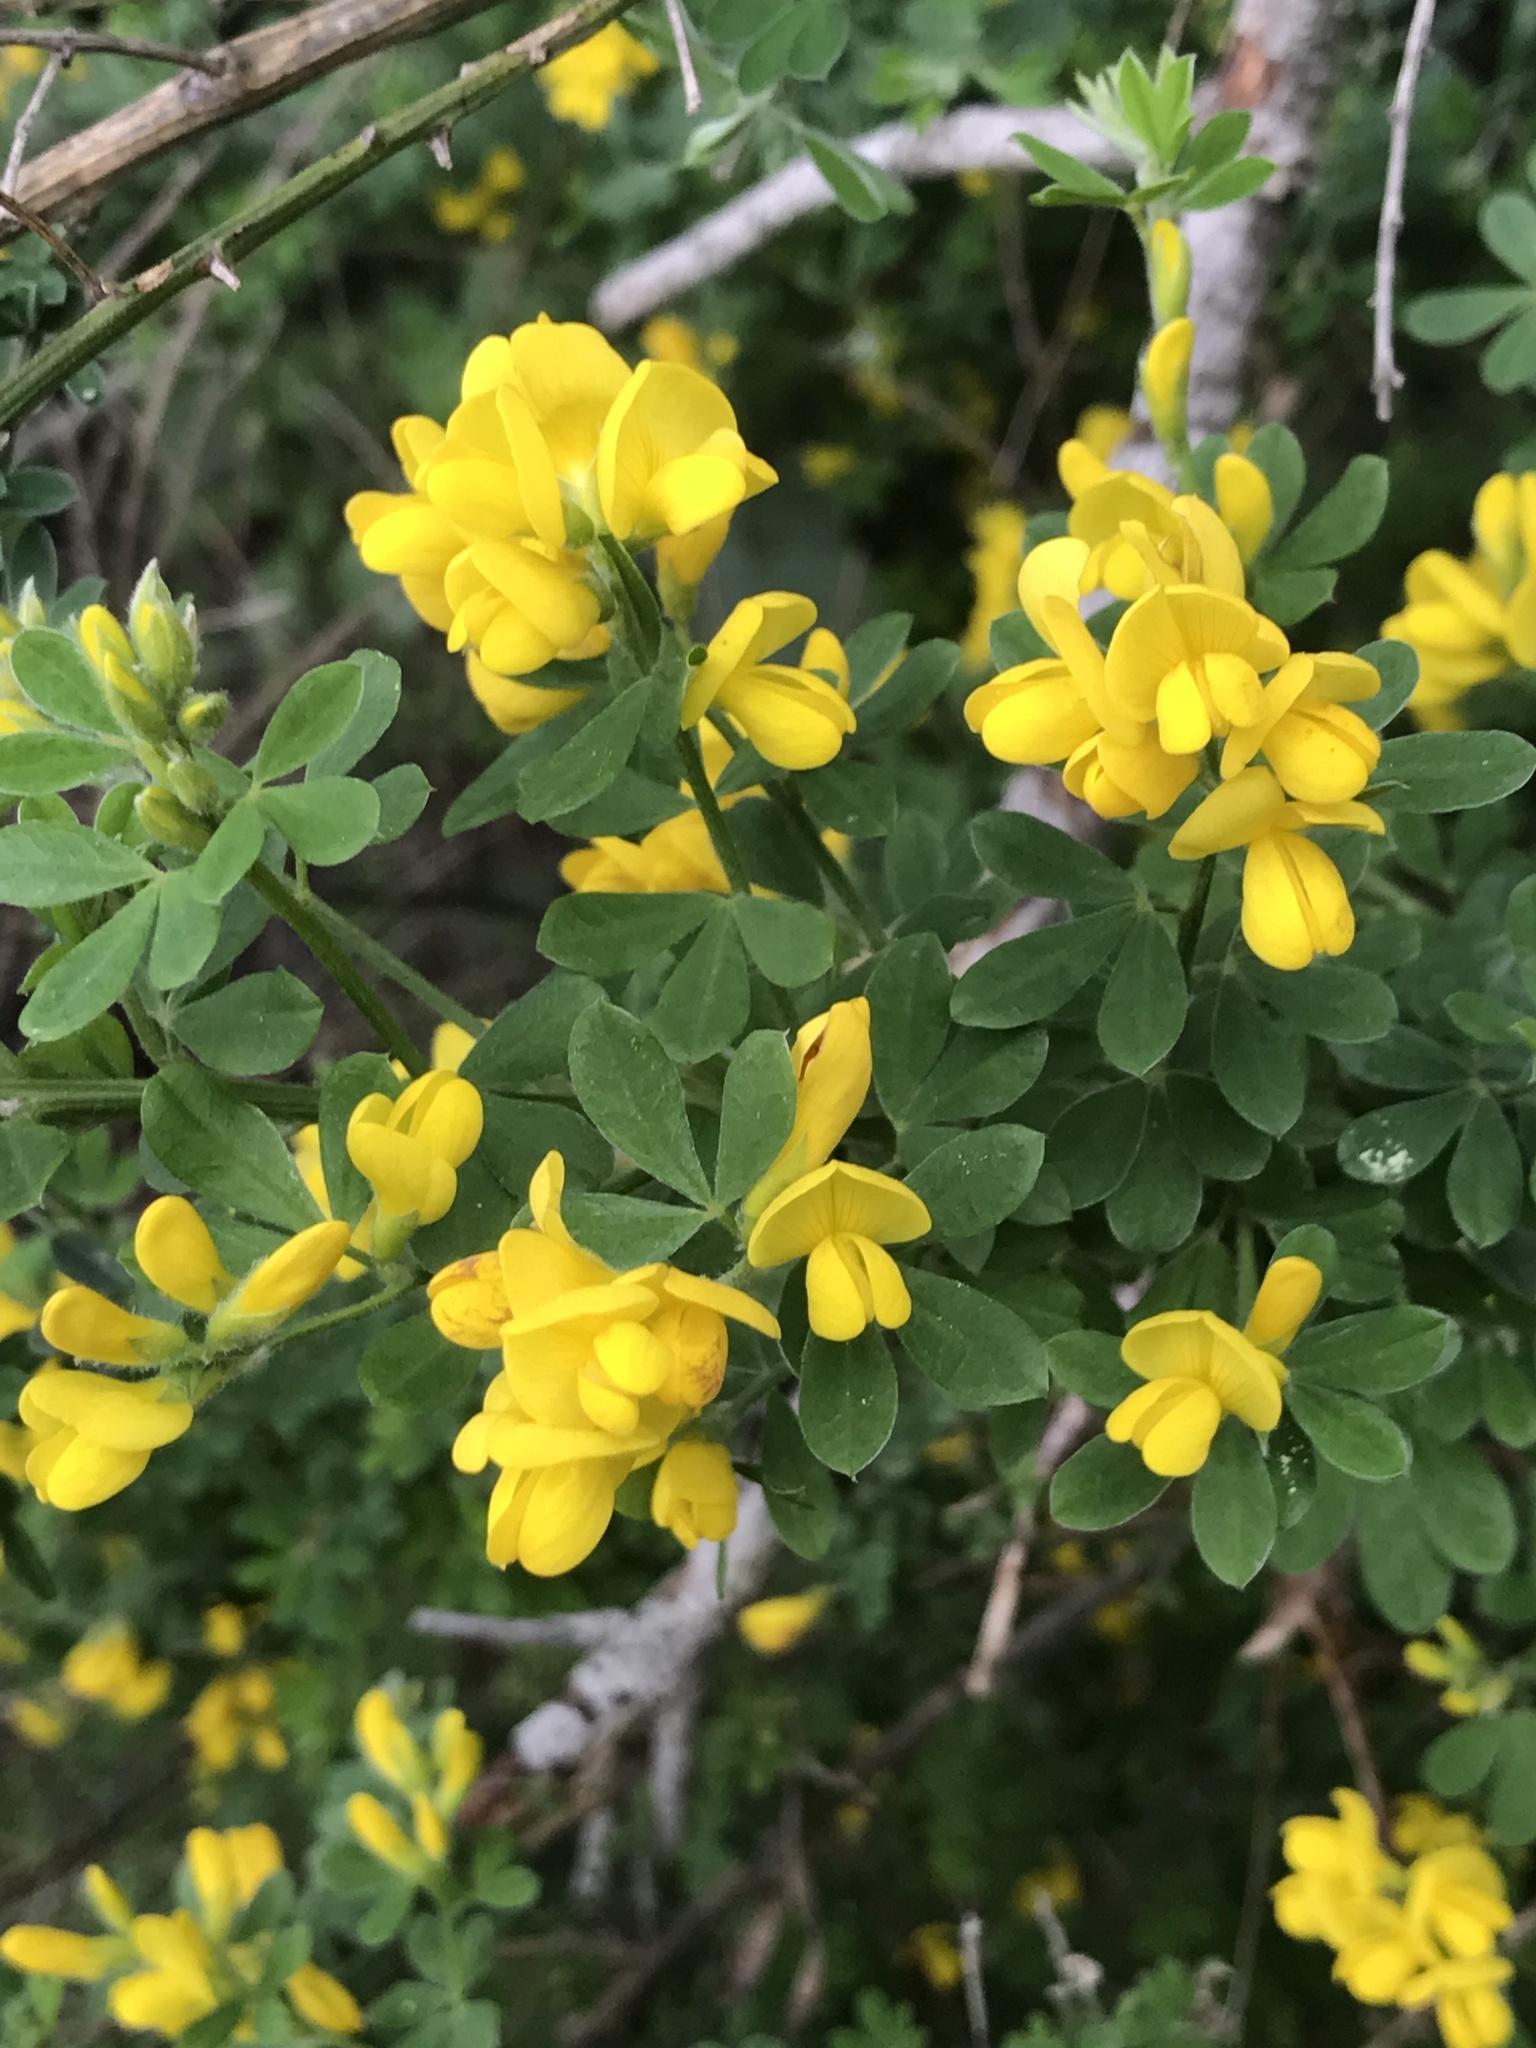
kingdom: Plantae
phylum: Tracheophyta
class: Magnoliopsida
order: Fabales
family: Fabaceae
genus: Genista
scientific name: Genista monspessulana
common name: Montpellier broom
